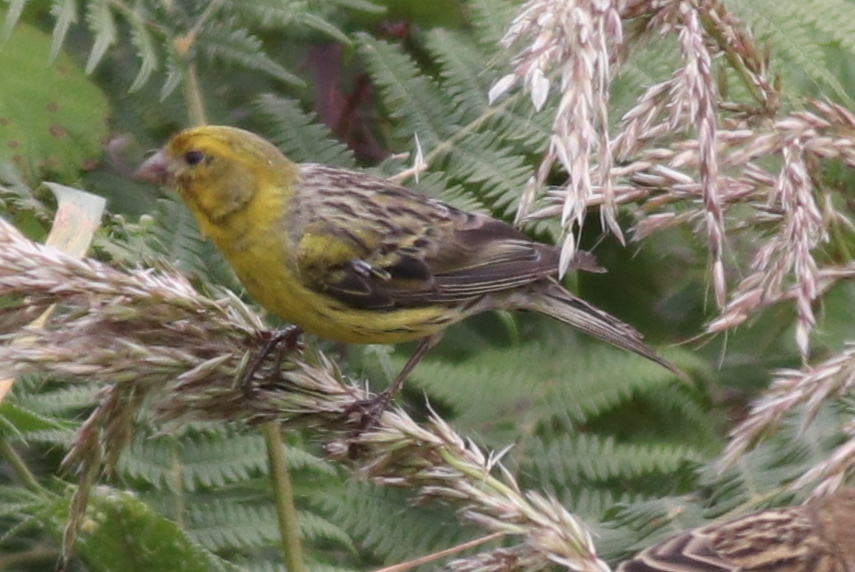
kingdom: Animalia
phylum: Chordata
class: Aves
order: Passeriformes
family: Fringillidae
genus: Serinus
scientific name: Serinus canaria
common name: Atlantic canary
